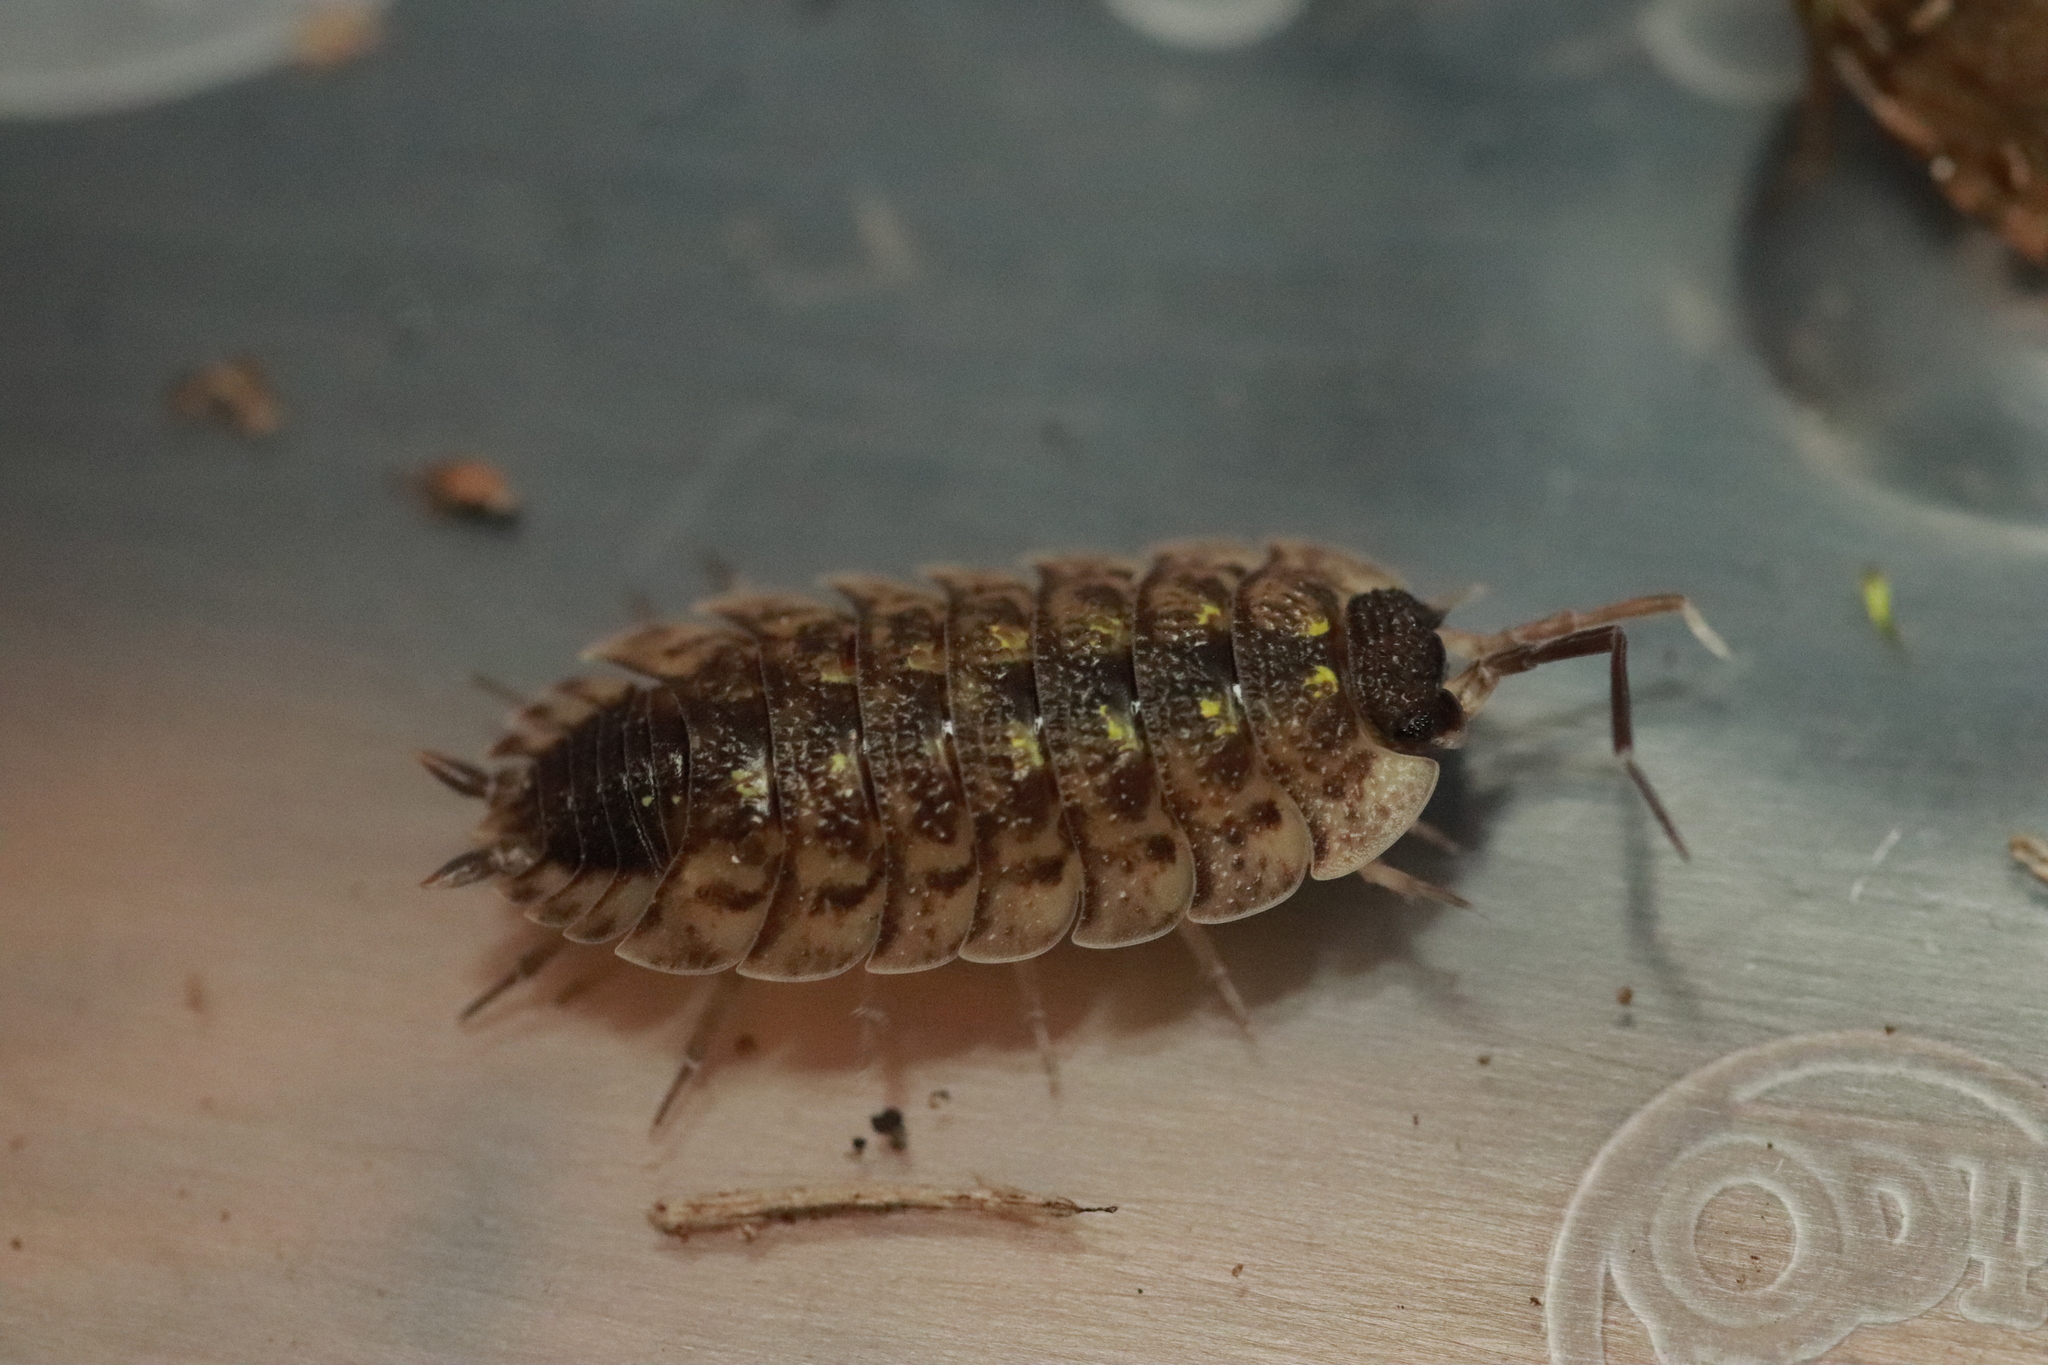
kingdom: Animalia
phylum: Arthropoda
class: Malacostraca
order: Isopoda
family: Porcellionidae
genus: Porcellio
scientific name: Porcellio spinicornis
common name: Painted woodlouse
